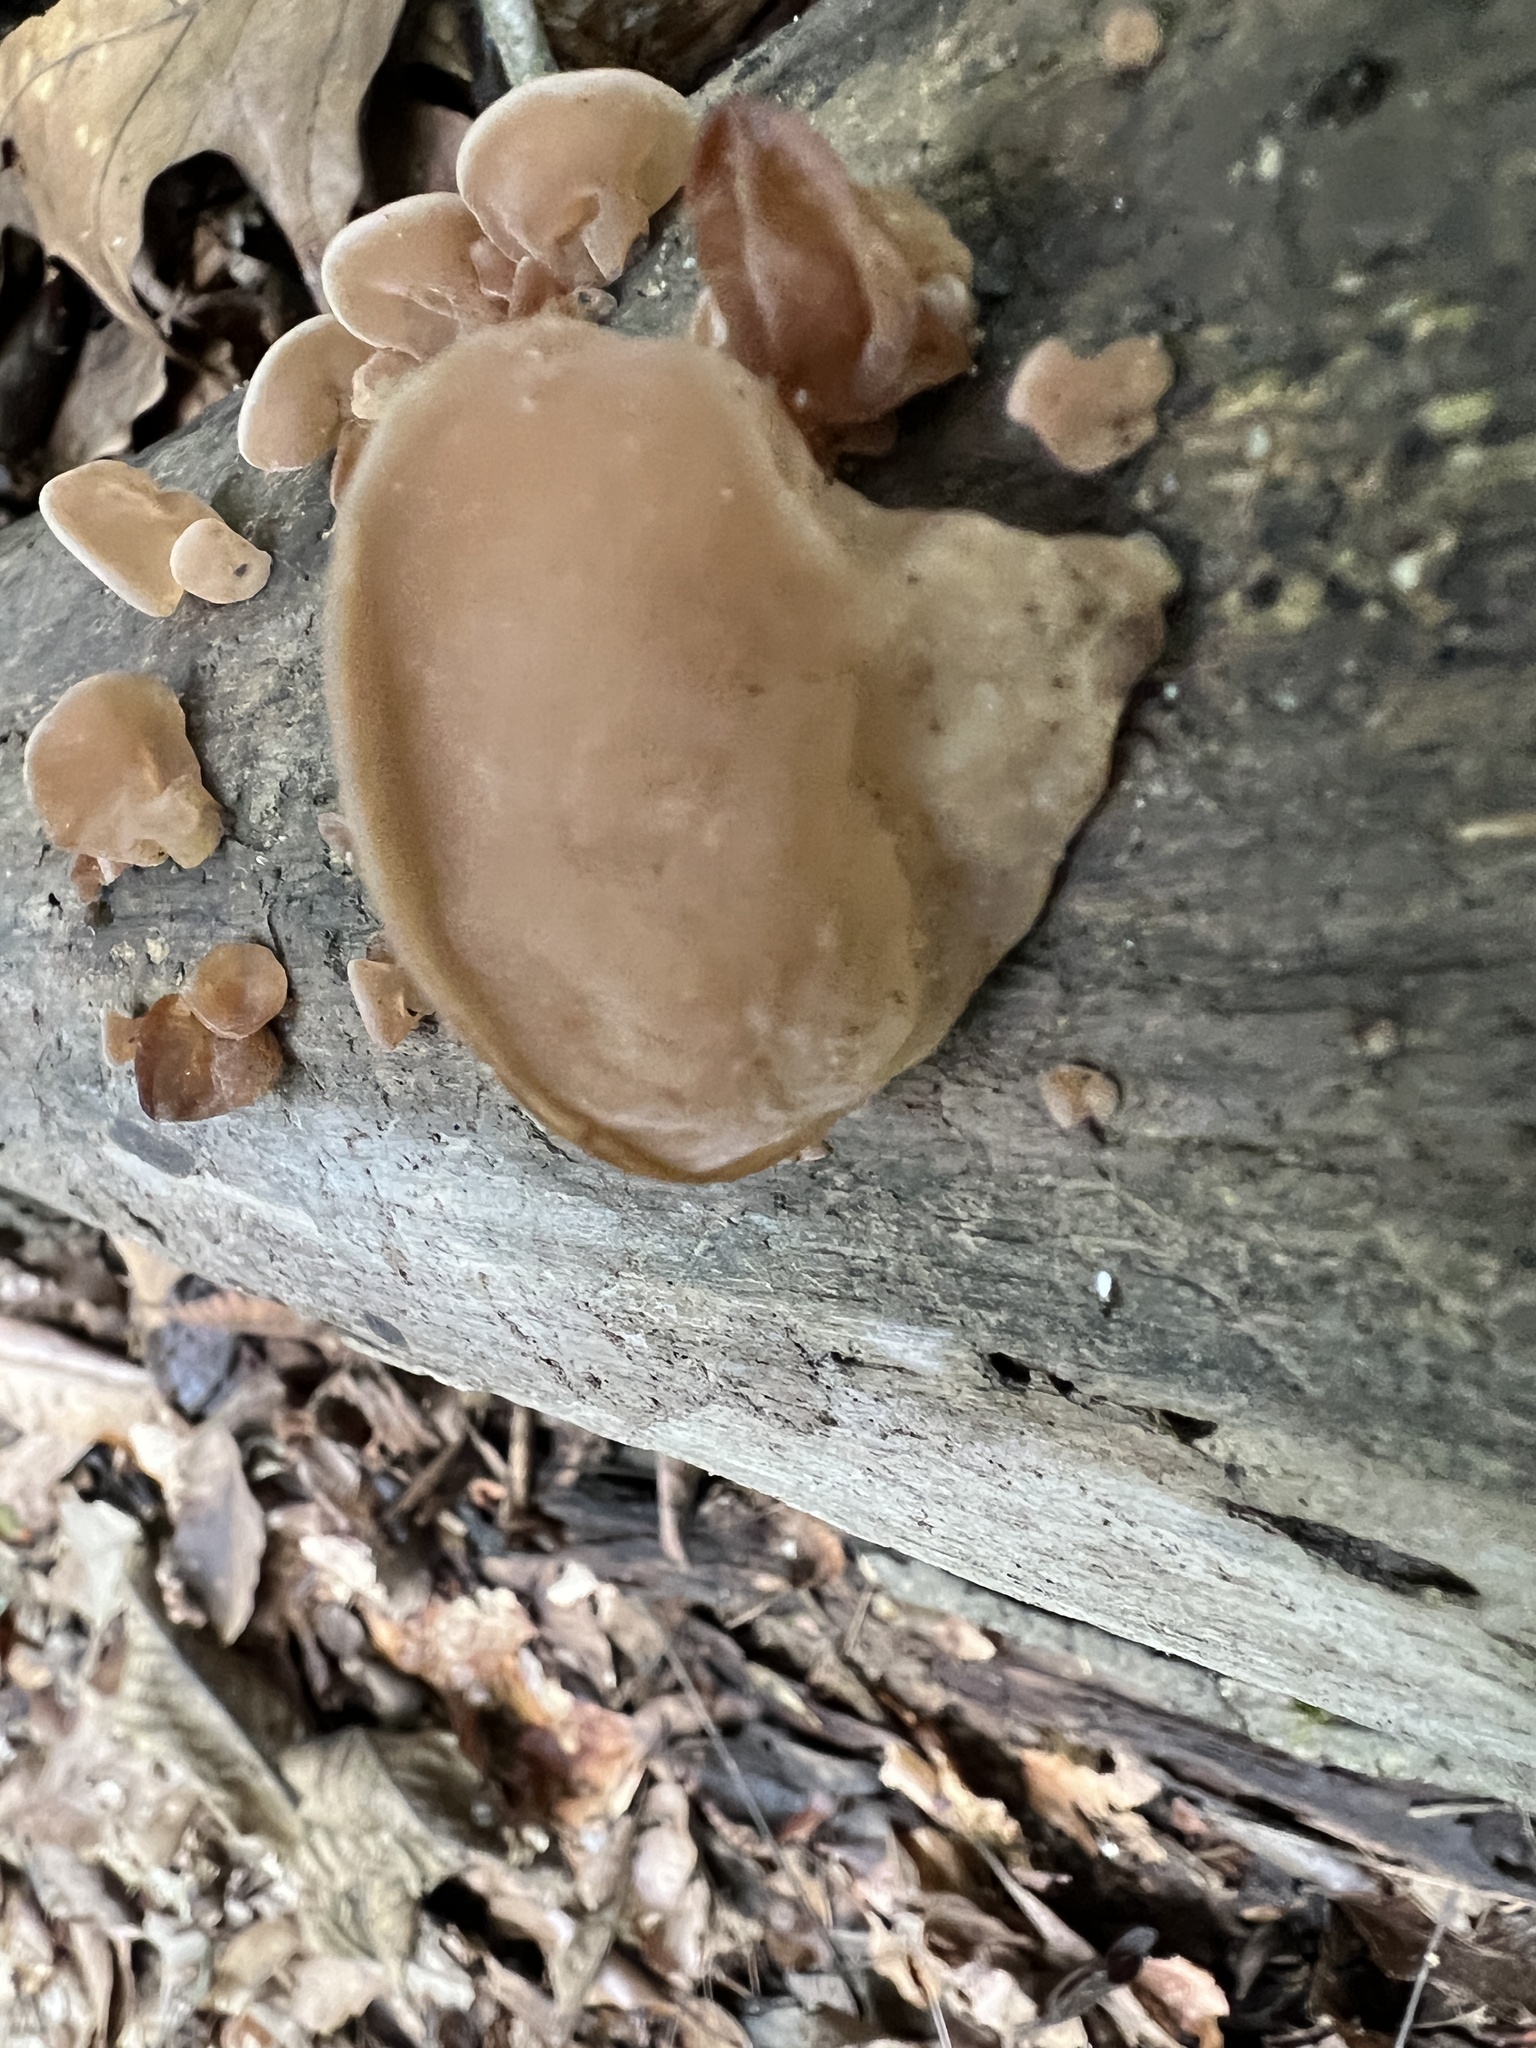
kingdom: Fungi
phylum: Basidiomycota
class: Agaricomycetes
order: Auriculariales
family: Auriculariaceae
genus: Auricularia
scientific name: Auricularia fuscosuccinea
